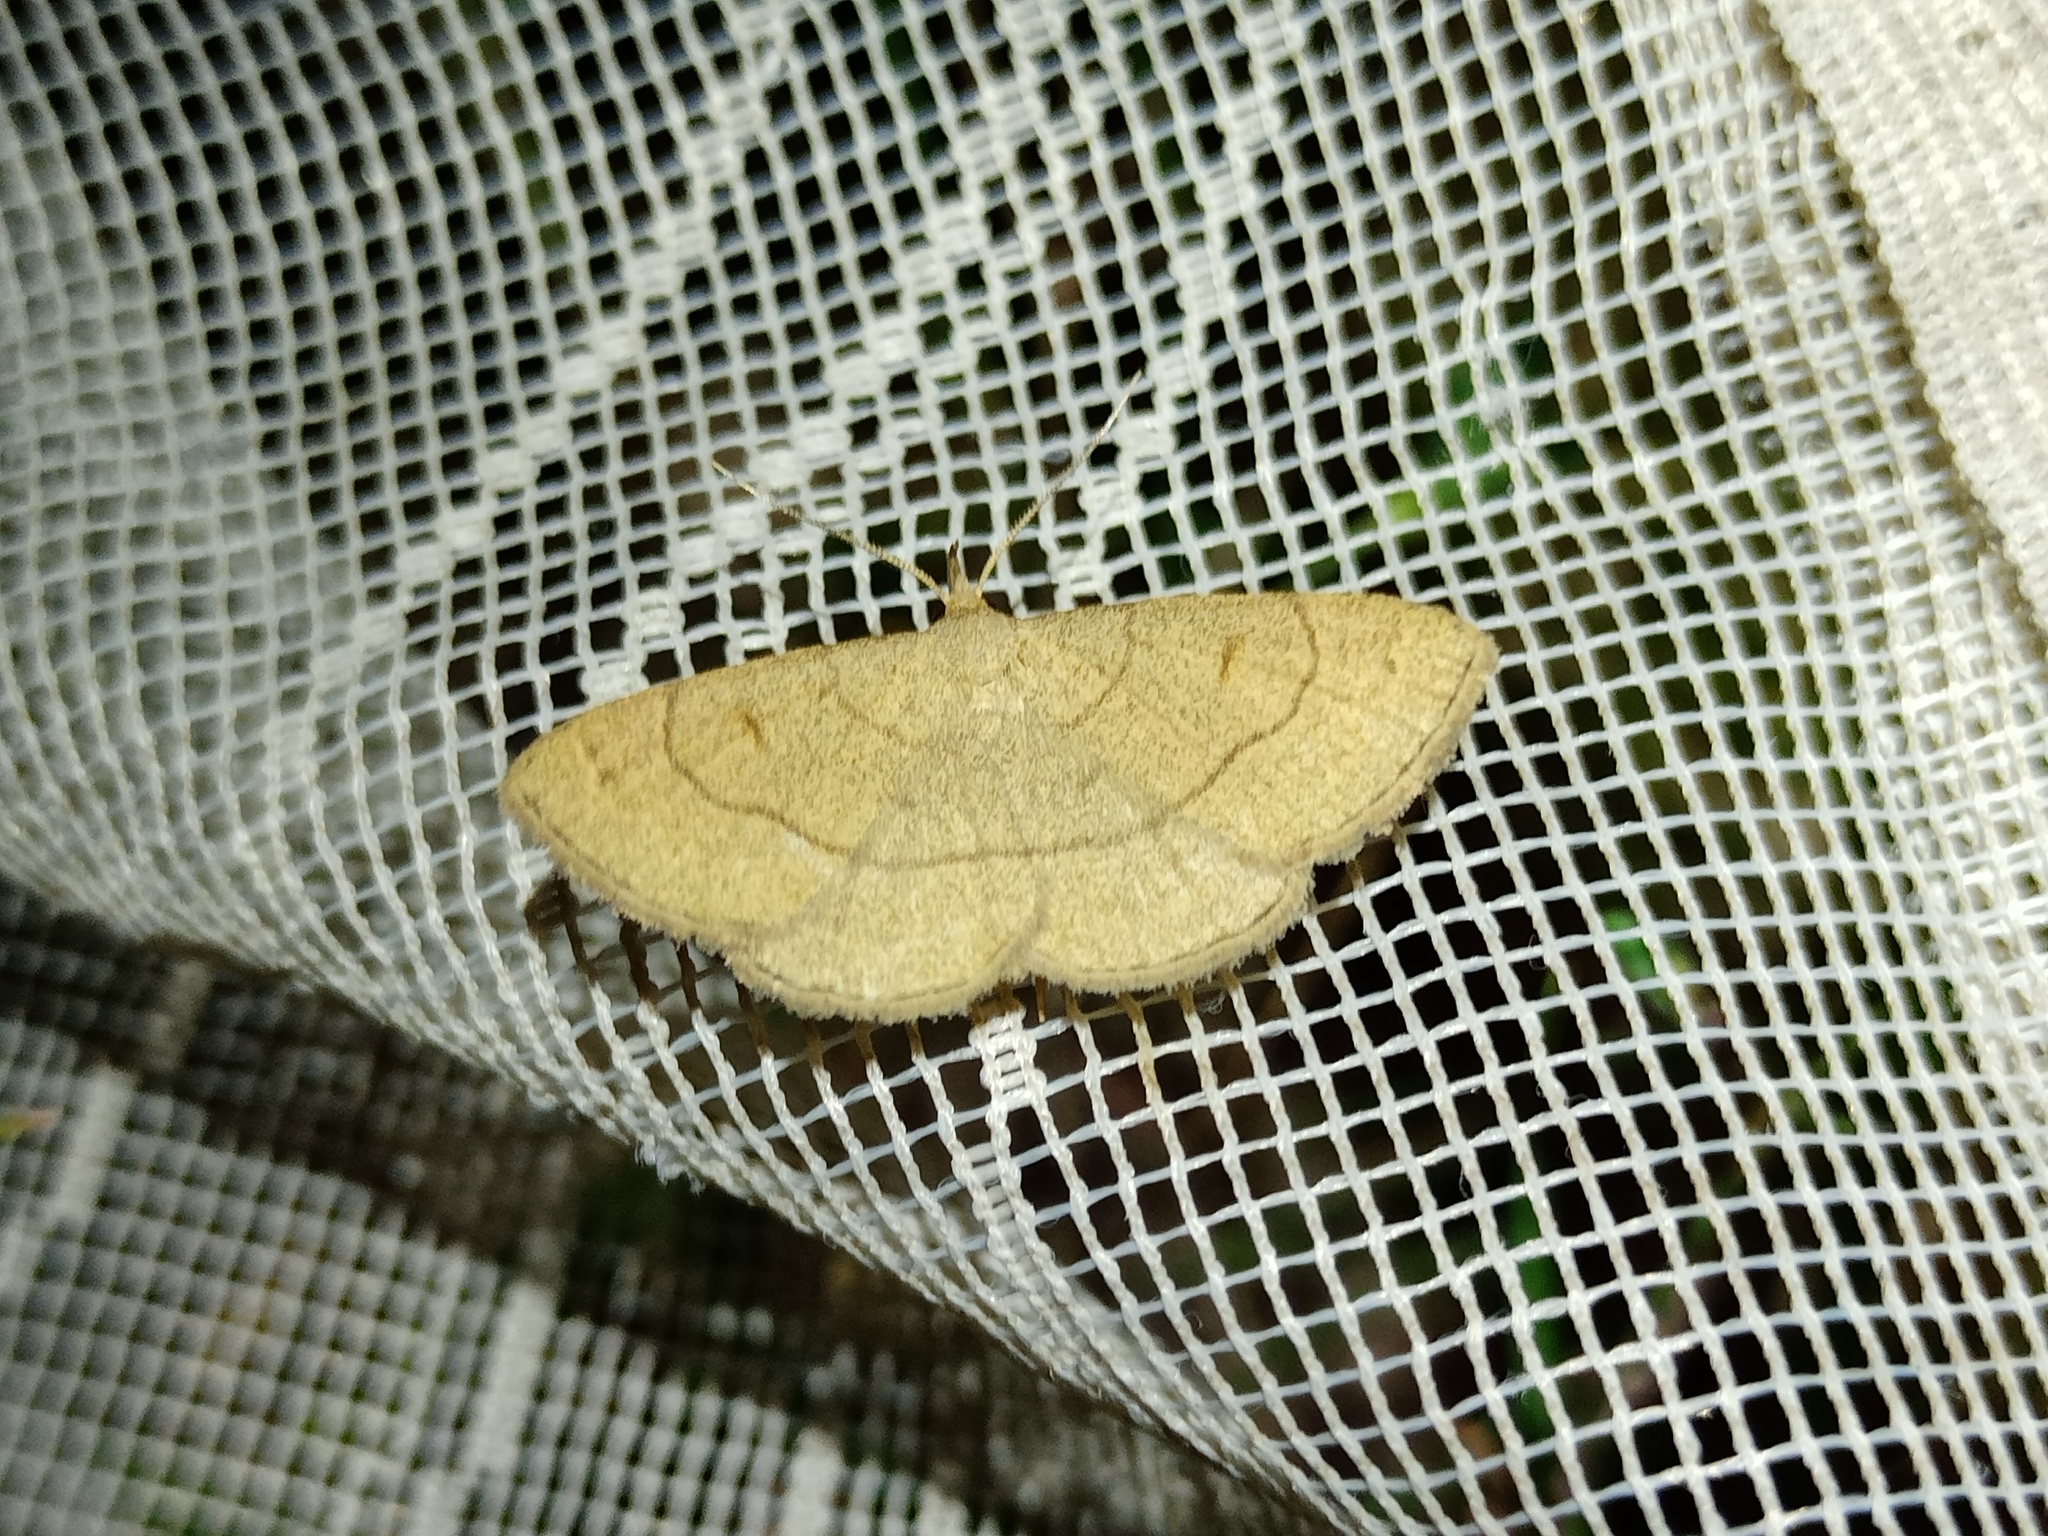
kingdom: Animalia
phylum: Arthropoda
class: Insecta
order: Lepidoptera
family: Erebidae
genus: Paracolax
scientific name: Paracolax tristalis
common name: Clay fan-foot
